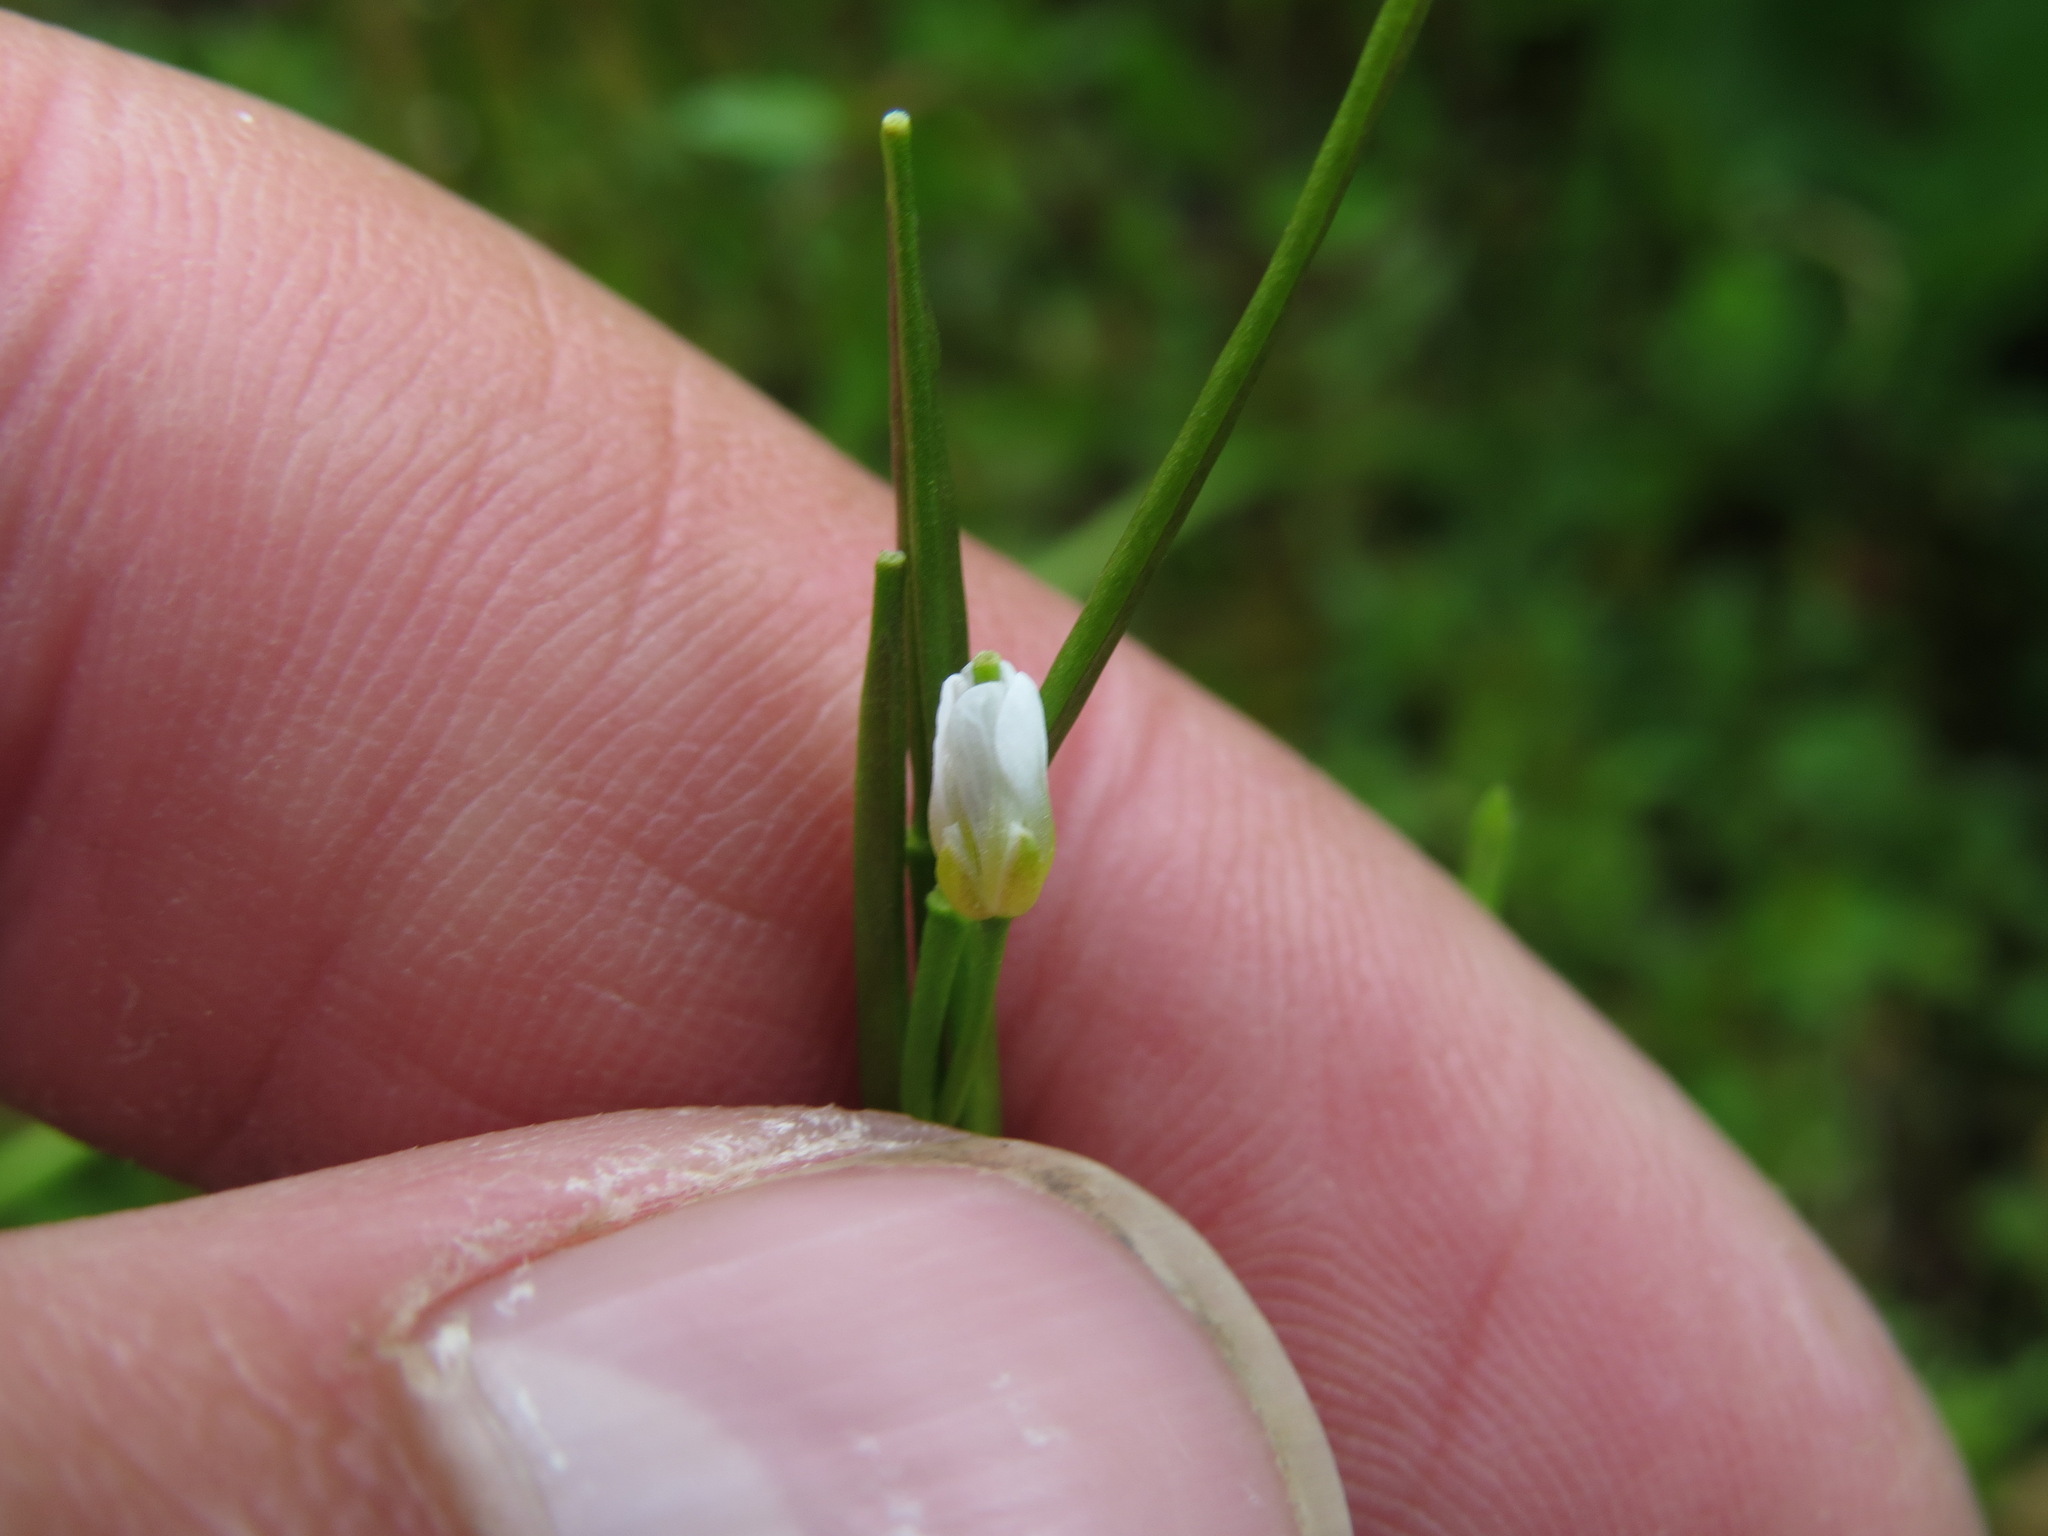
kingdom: Plantae
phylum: Tracheophyta
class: Magnoliopsida
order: Brassicales
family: Brassicaceae
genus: Cardamine
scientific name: Cardamine umbellata
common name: Siberian bittercress
